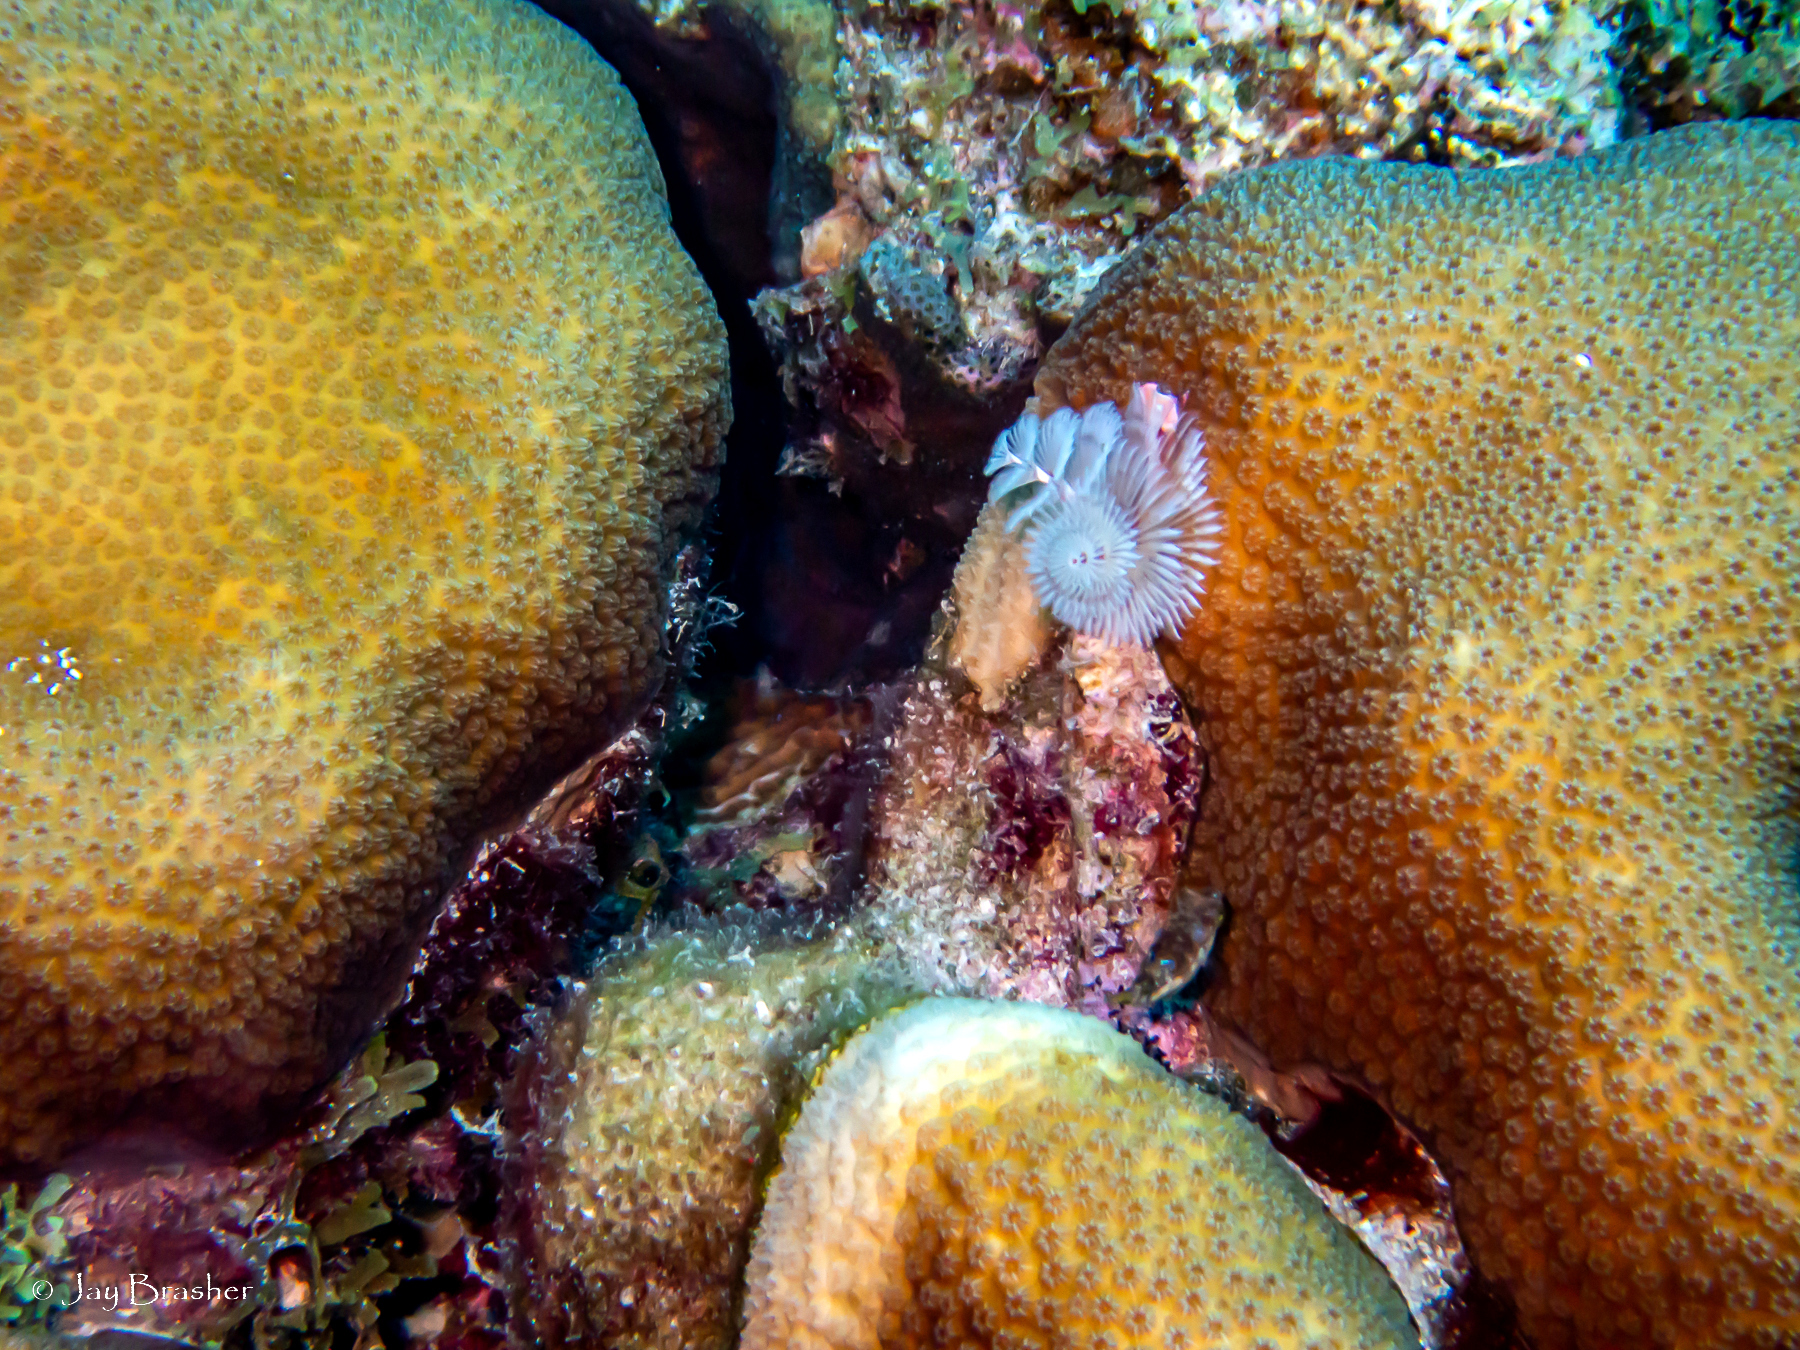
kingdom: Animalia
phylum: Annelida
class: Polychaeta
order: Sabellida
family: Serpulidae
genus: Spirobranchus
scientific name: Spirobranchus giganteus
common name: Christmas tree worm
